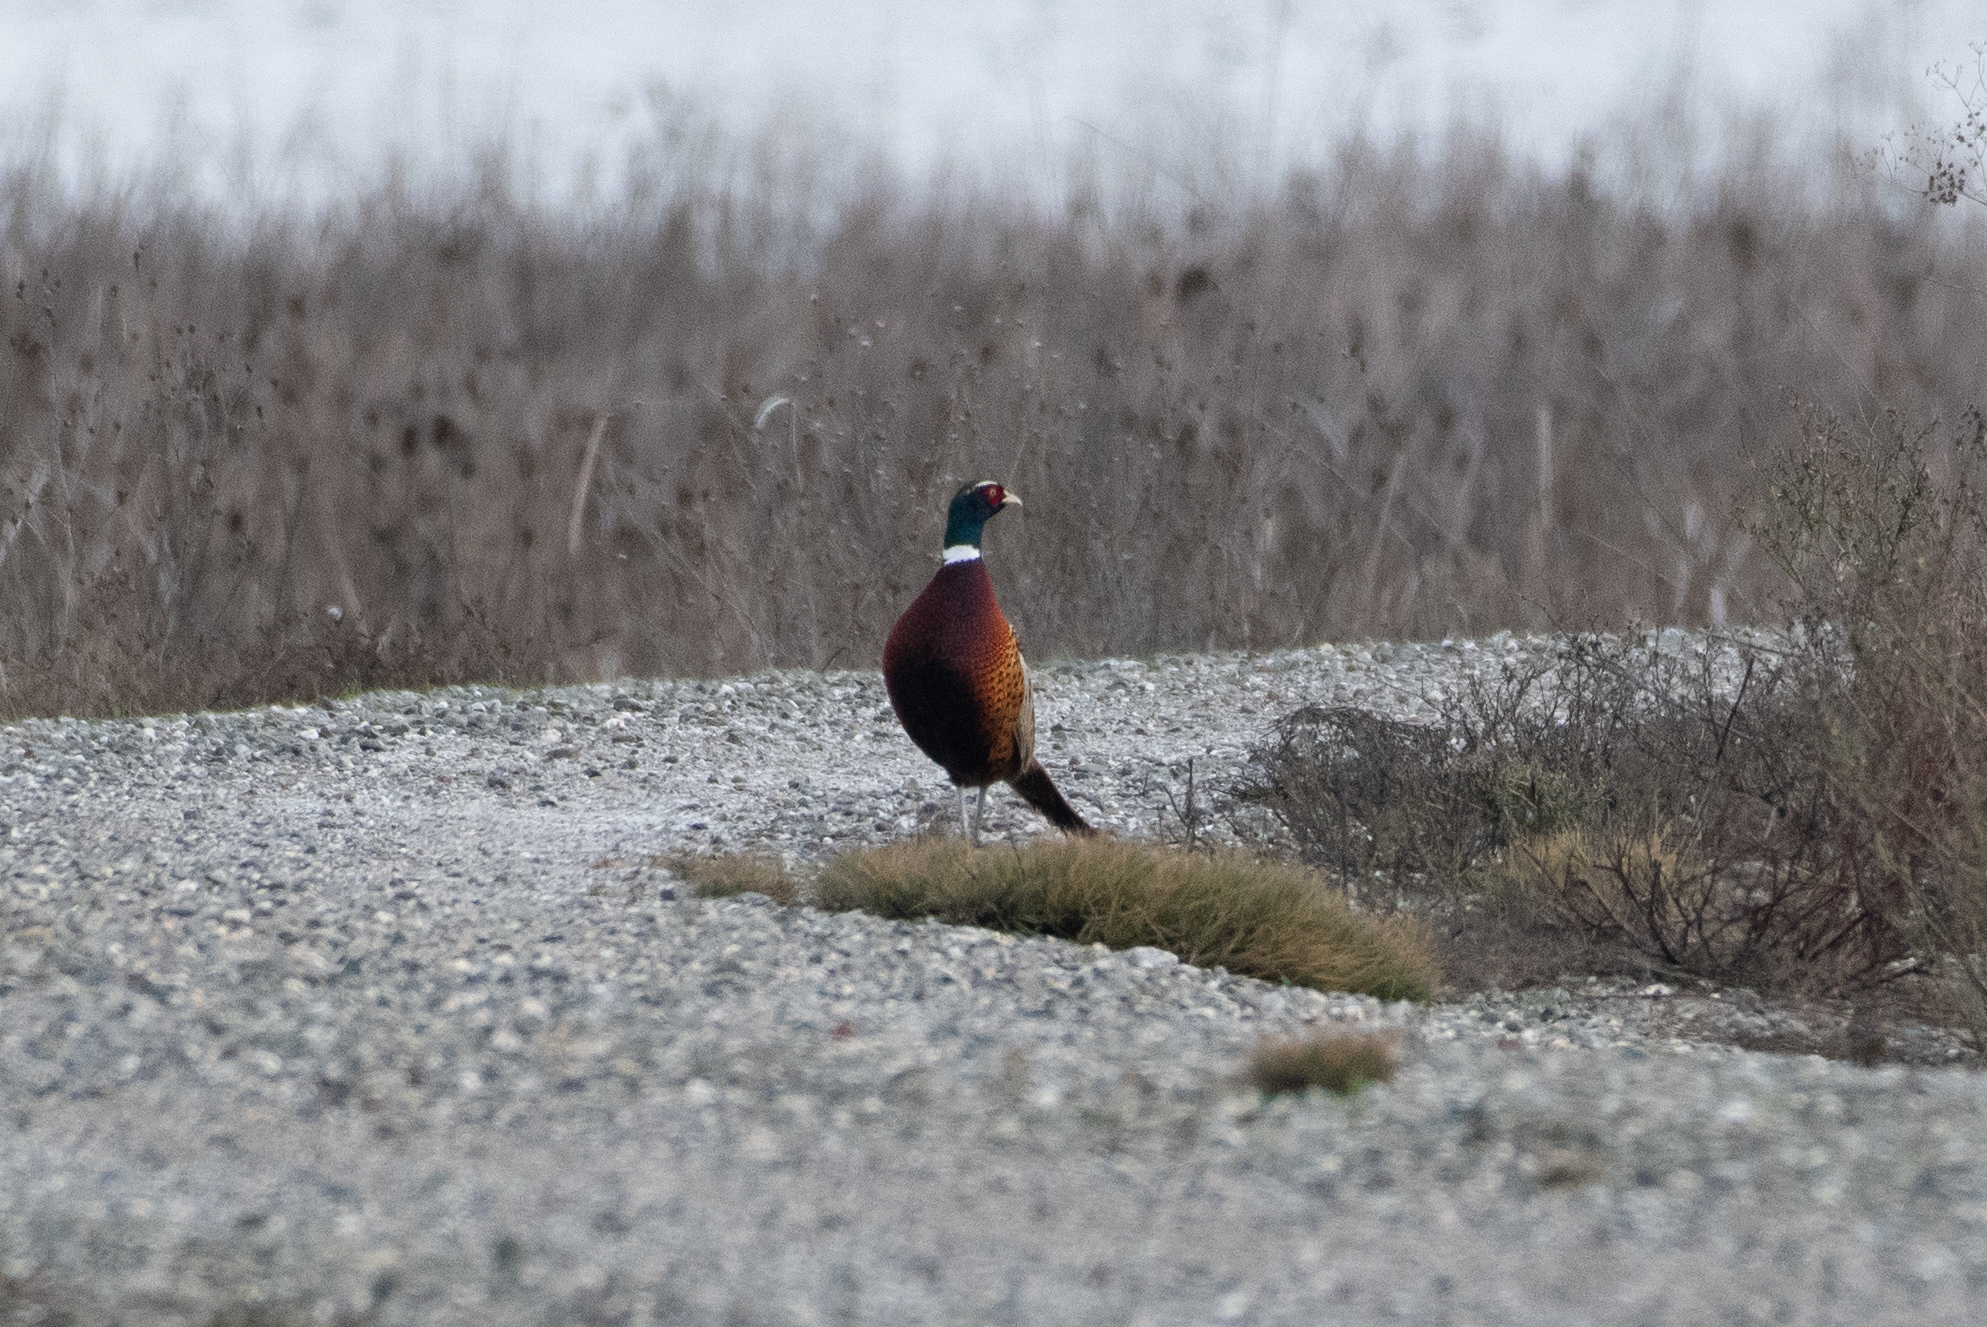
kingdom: Animalia
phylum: Chordata
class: Aves
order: Galliformes
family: Phasianidae
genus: Phasianus
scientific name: Phasianus colchicus
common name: Common pheasant
